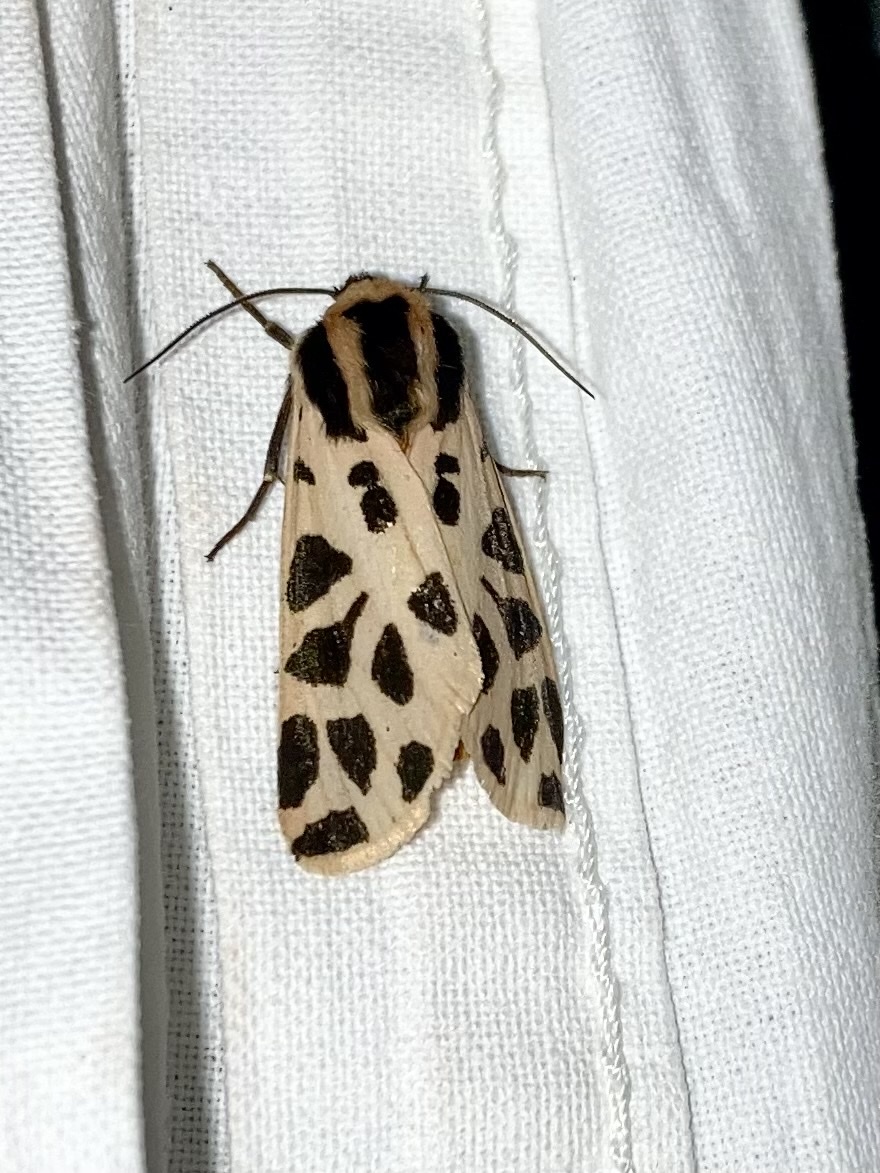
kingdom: Animalia
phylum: Arthropoda
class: Insecta
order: Lepidoptera
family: Erebidae
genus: Cymbalophora
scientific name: Cymbalophora pudica
